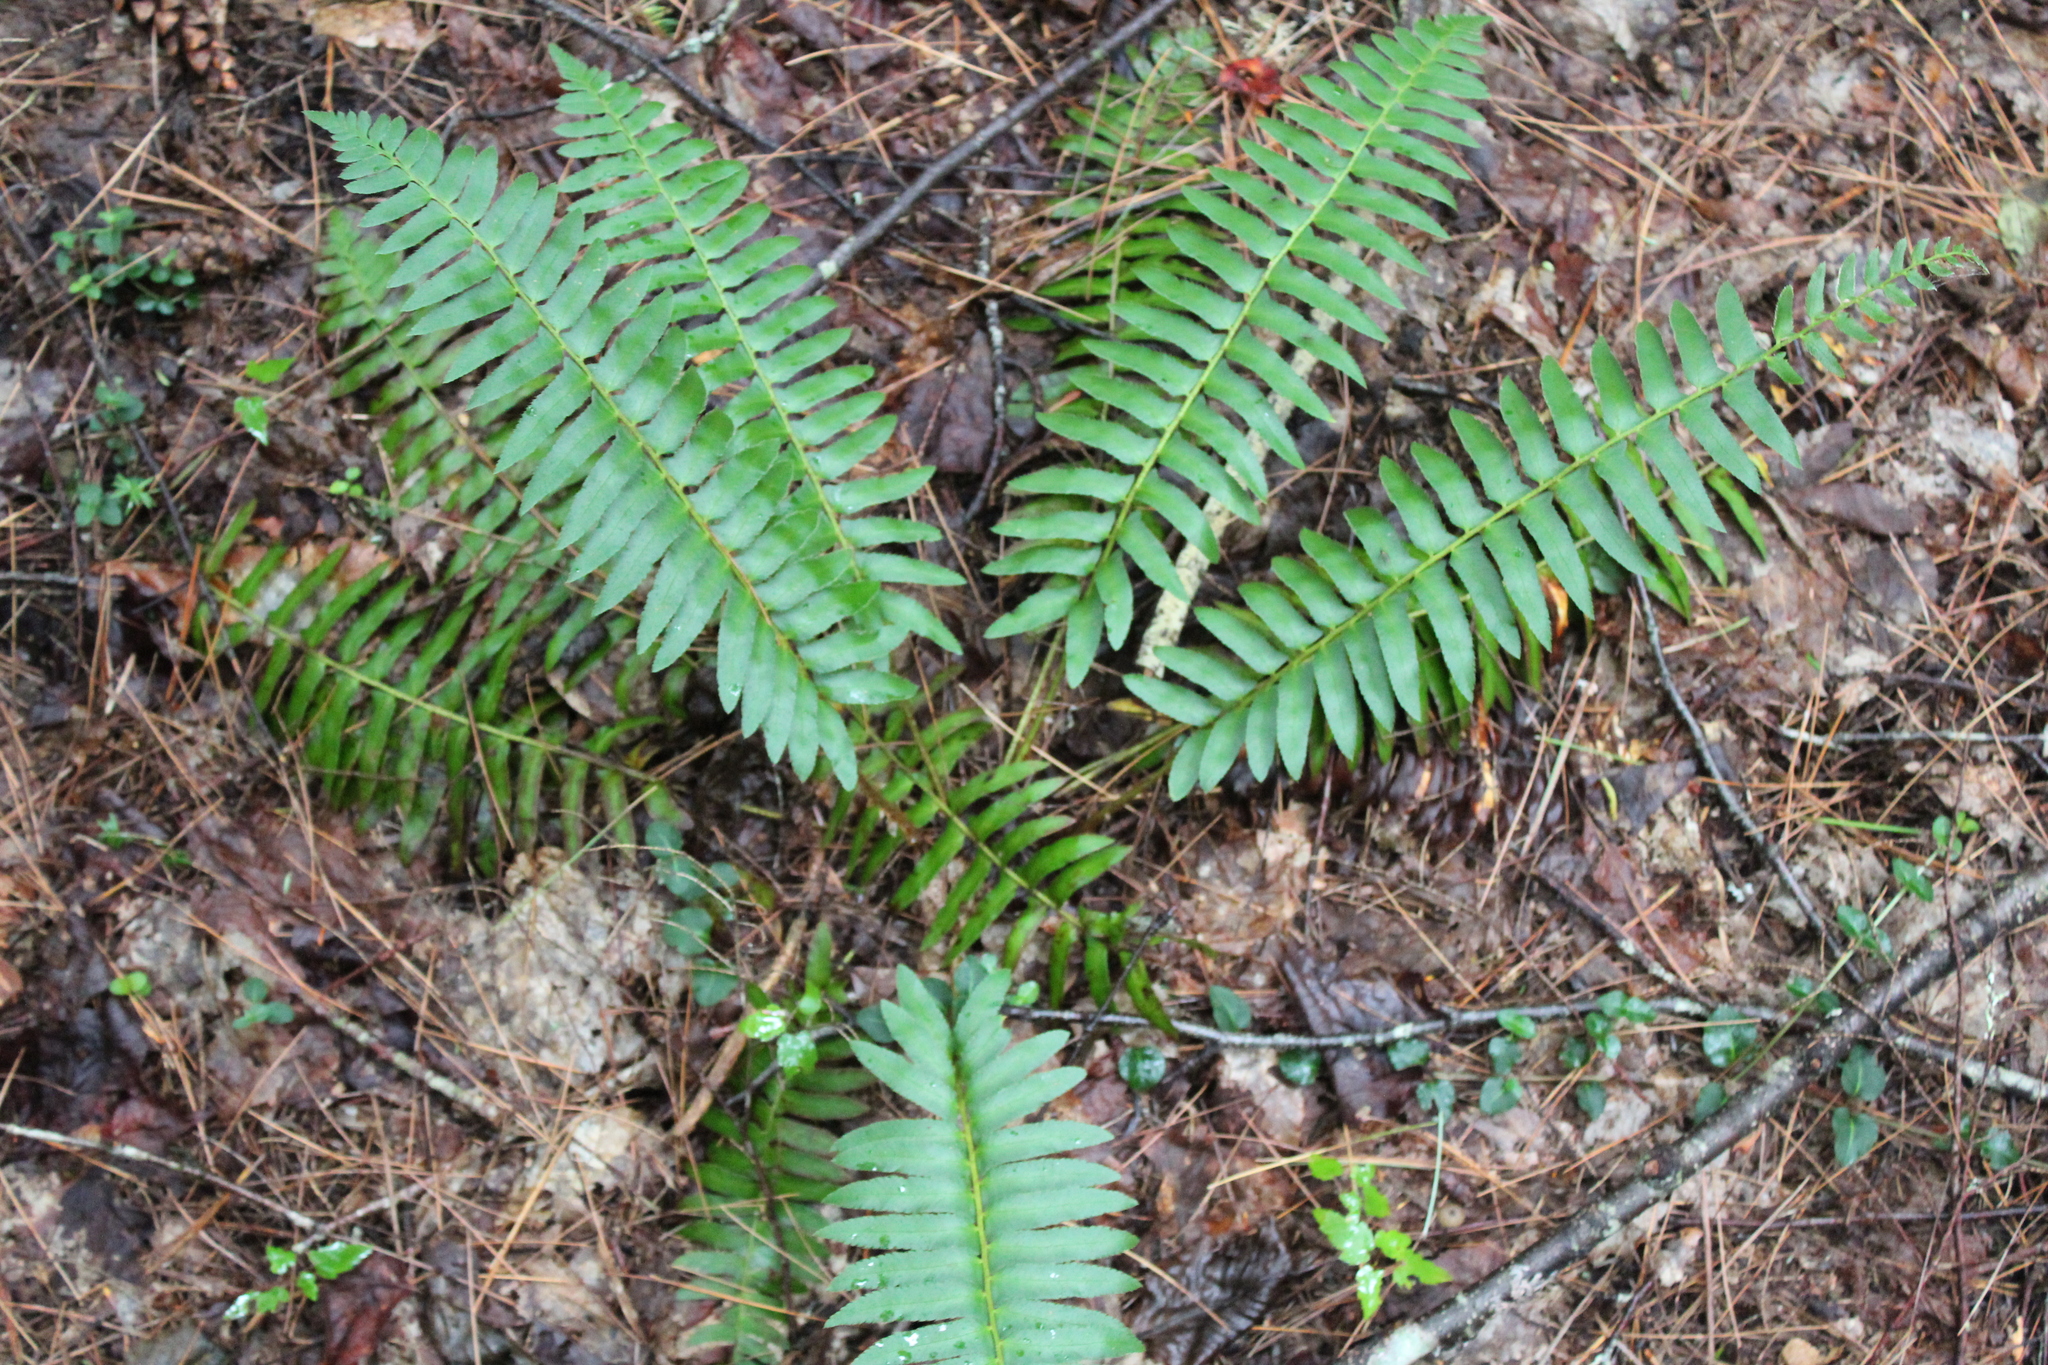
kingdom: Plantae
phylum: Tracheophyta
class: Polypodiopsida
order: Polypodiales
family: Dryopteridaceae
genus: Polystichum
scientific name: Polystichum acrostichoides
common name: Christmas fern
